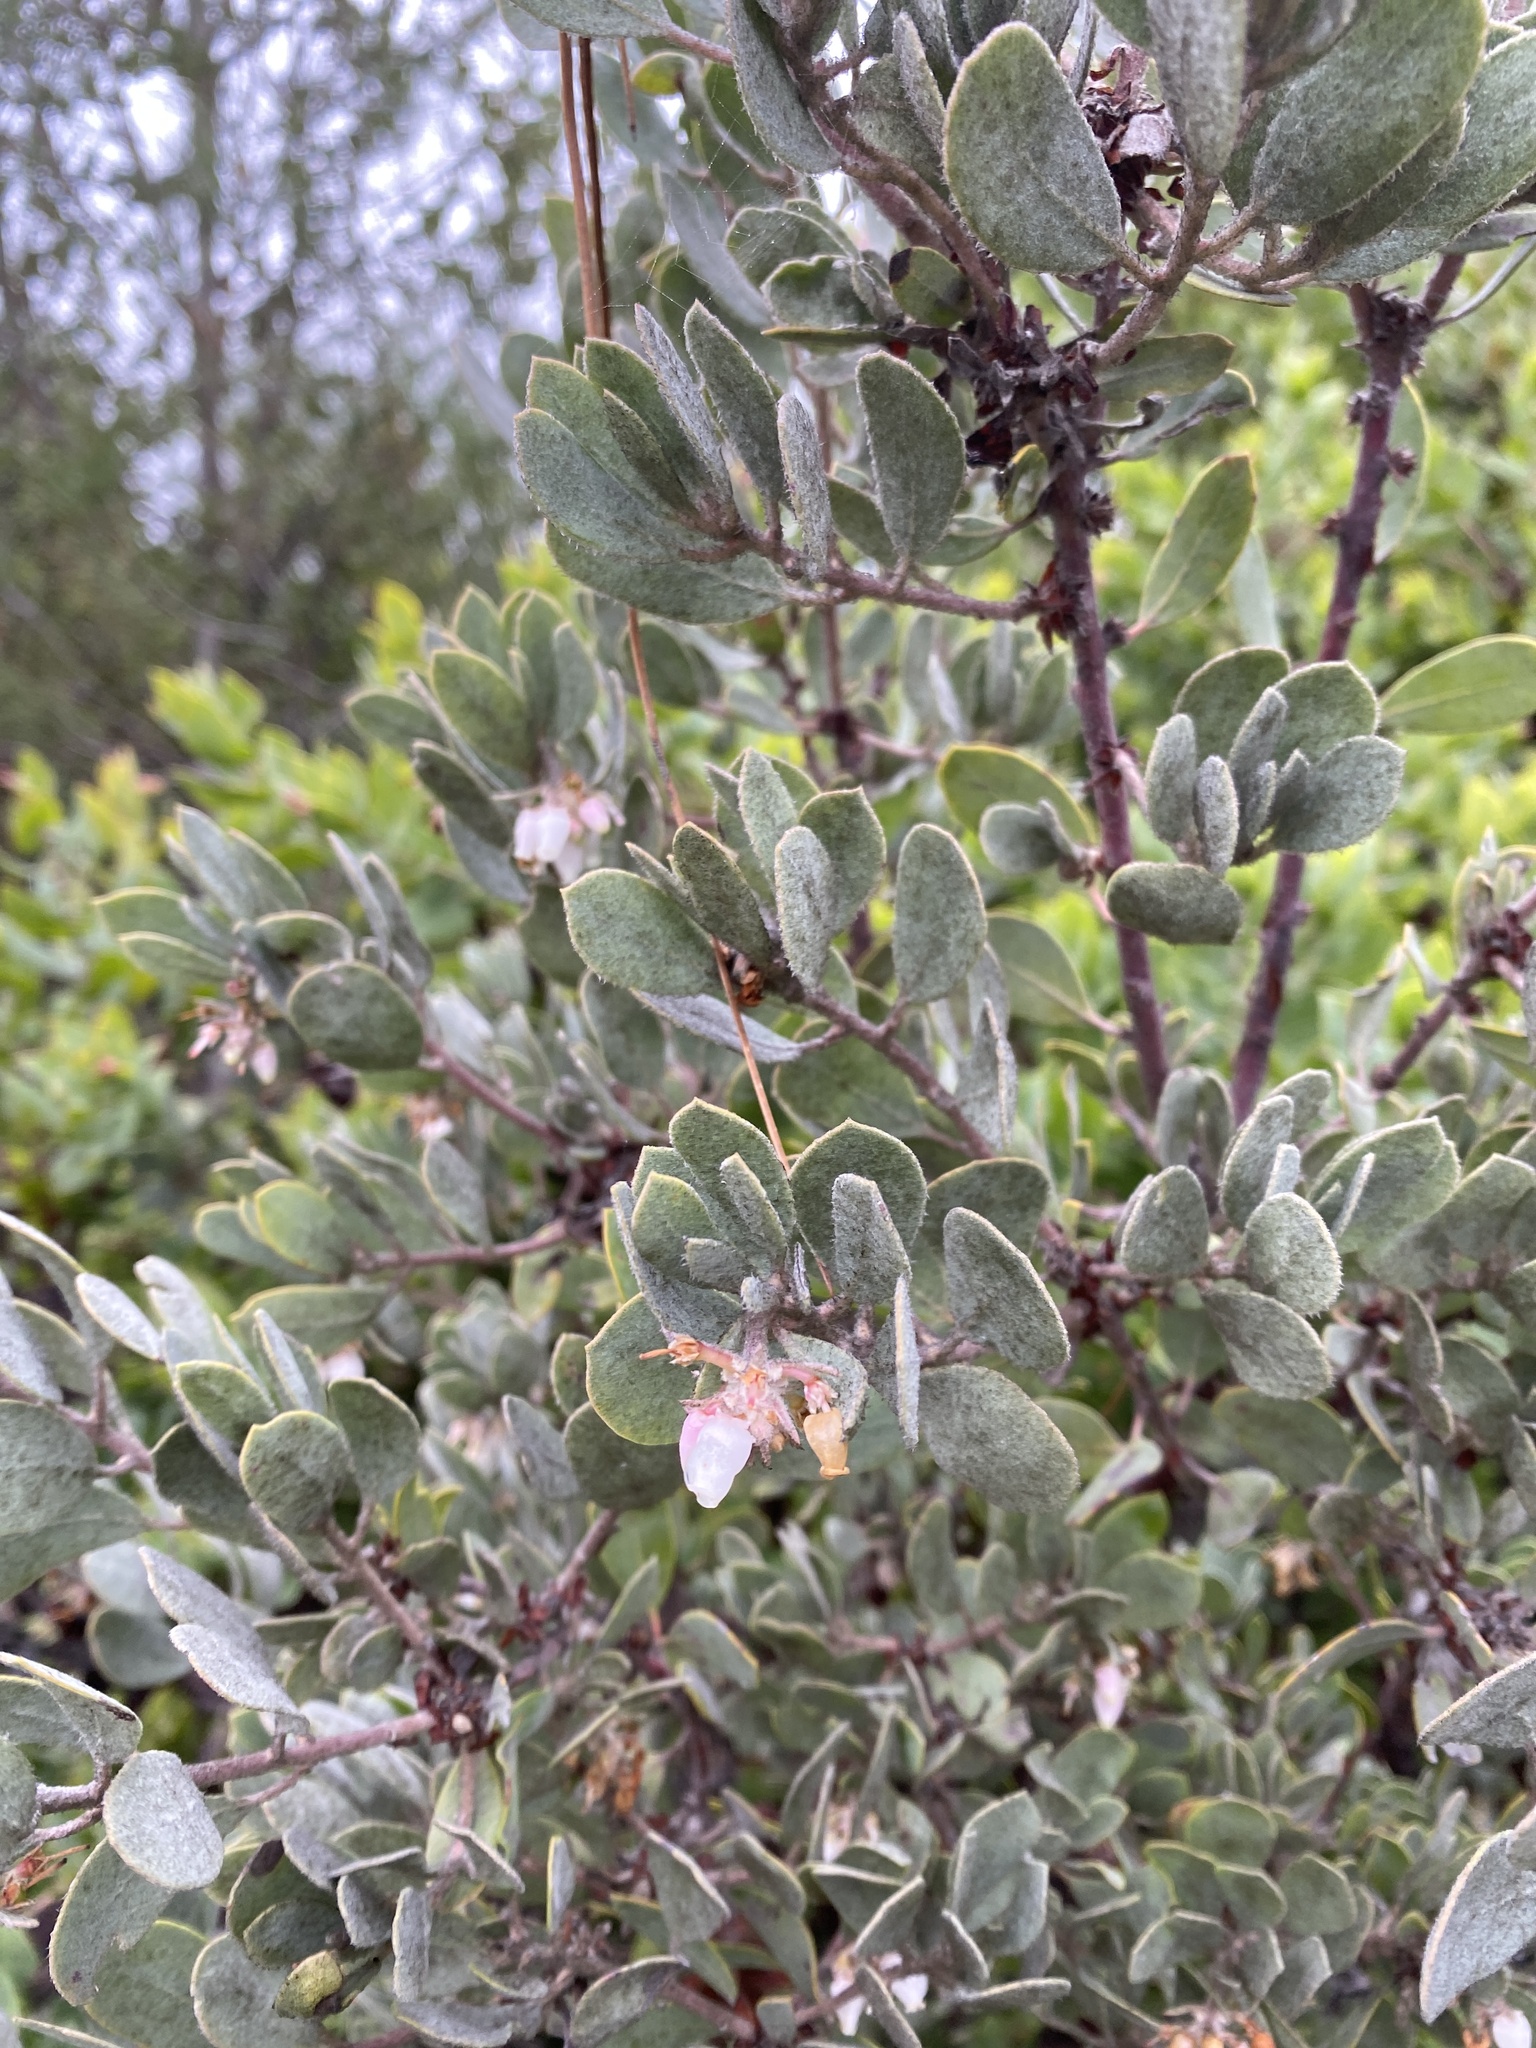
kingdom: Plantae
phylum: Tracheophyta
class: Magnoliopsida
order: Ericales
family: Ericaceae
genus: Arctostaphylos
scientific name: Arctostaphylos silvicola
